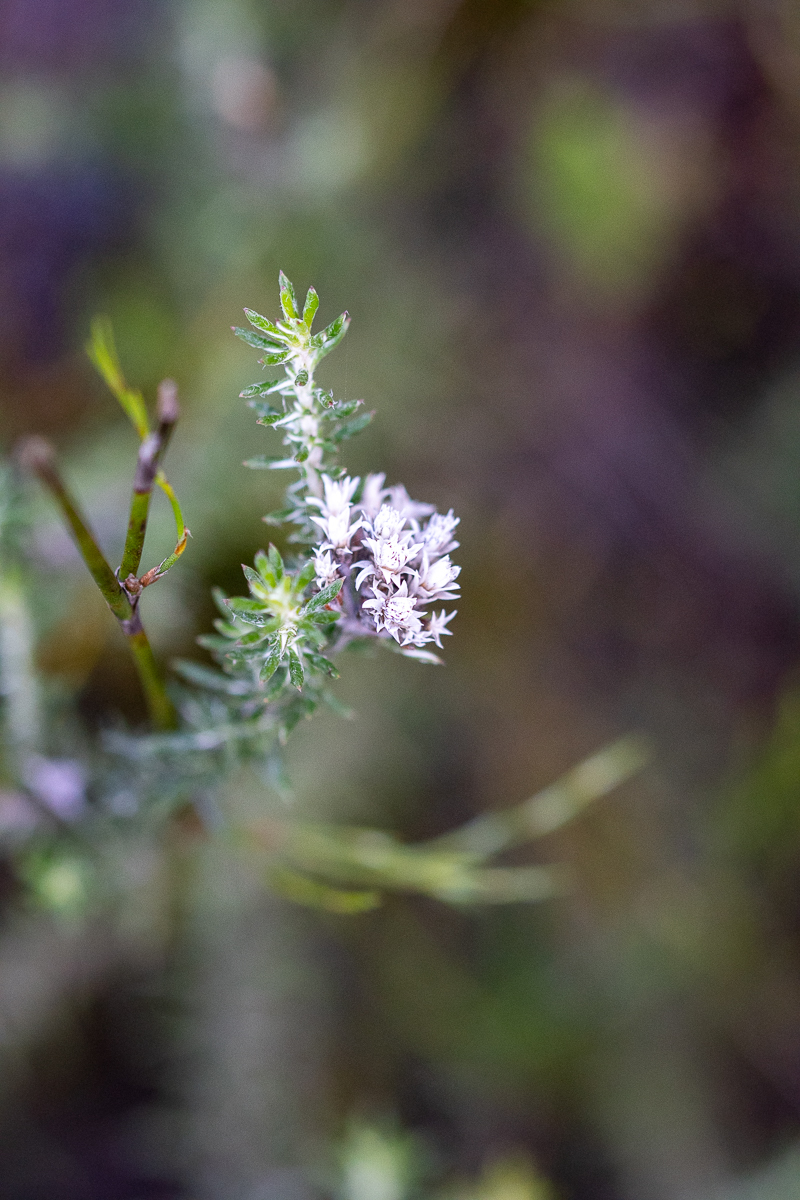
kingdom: Plantae
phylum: Tracheophyta
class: Magnoliopsida
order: Asterales
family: Asteraceae
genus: Metalasia
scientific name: Metalasia lichtensteinii
